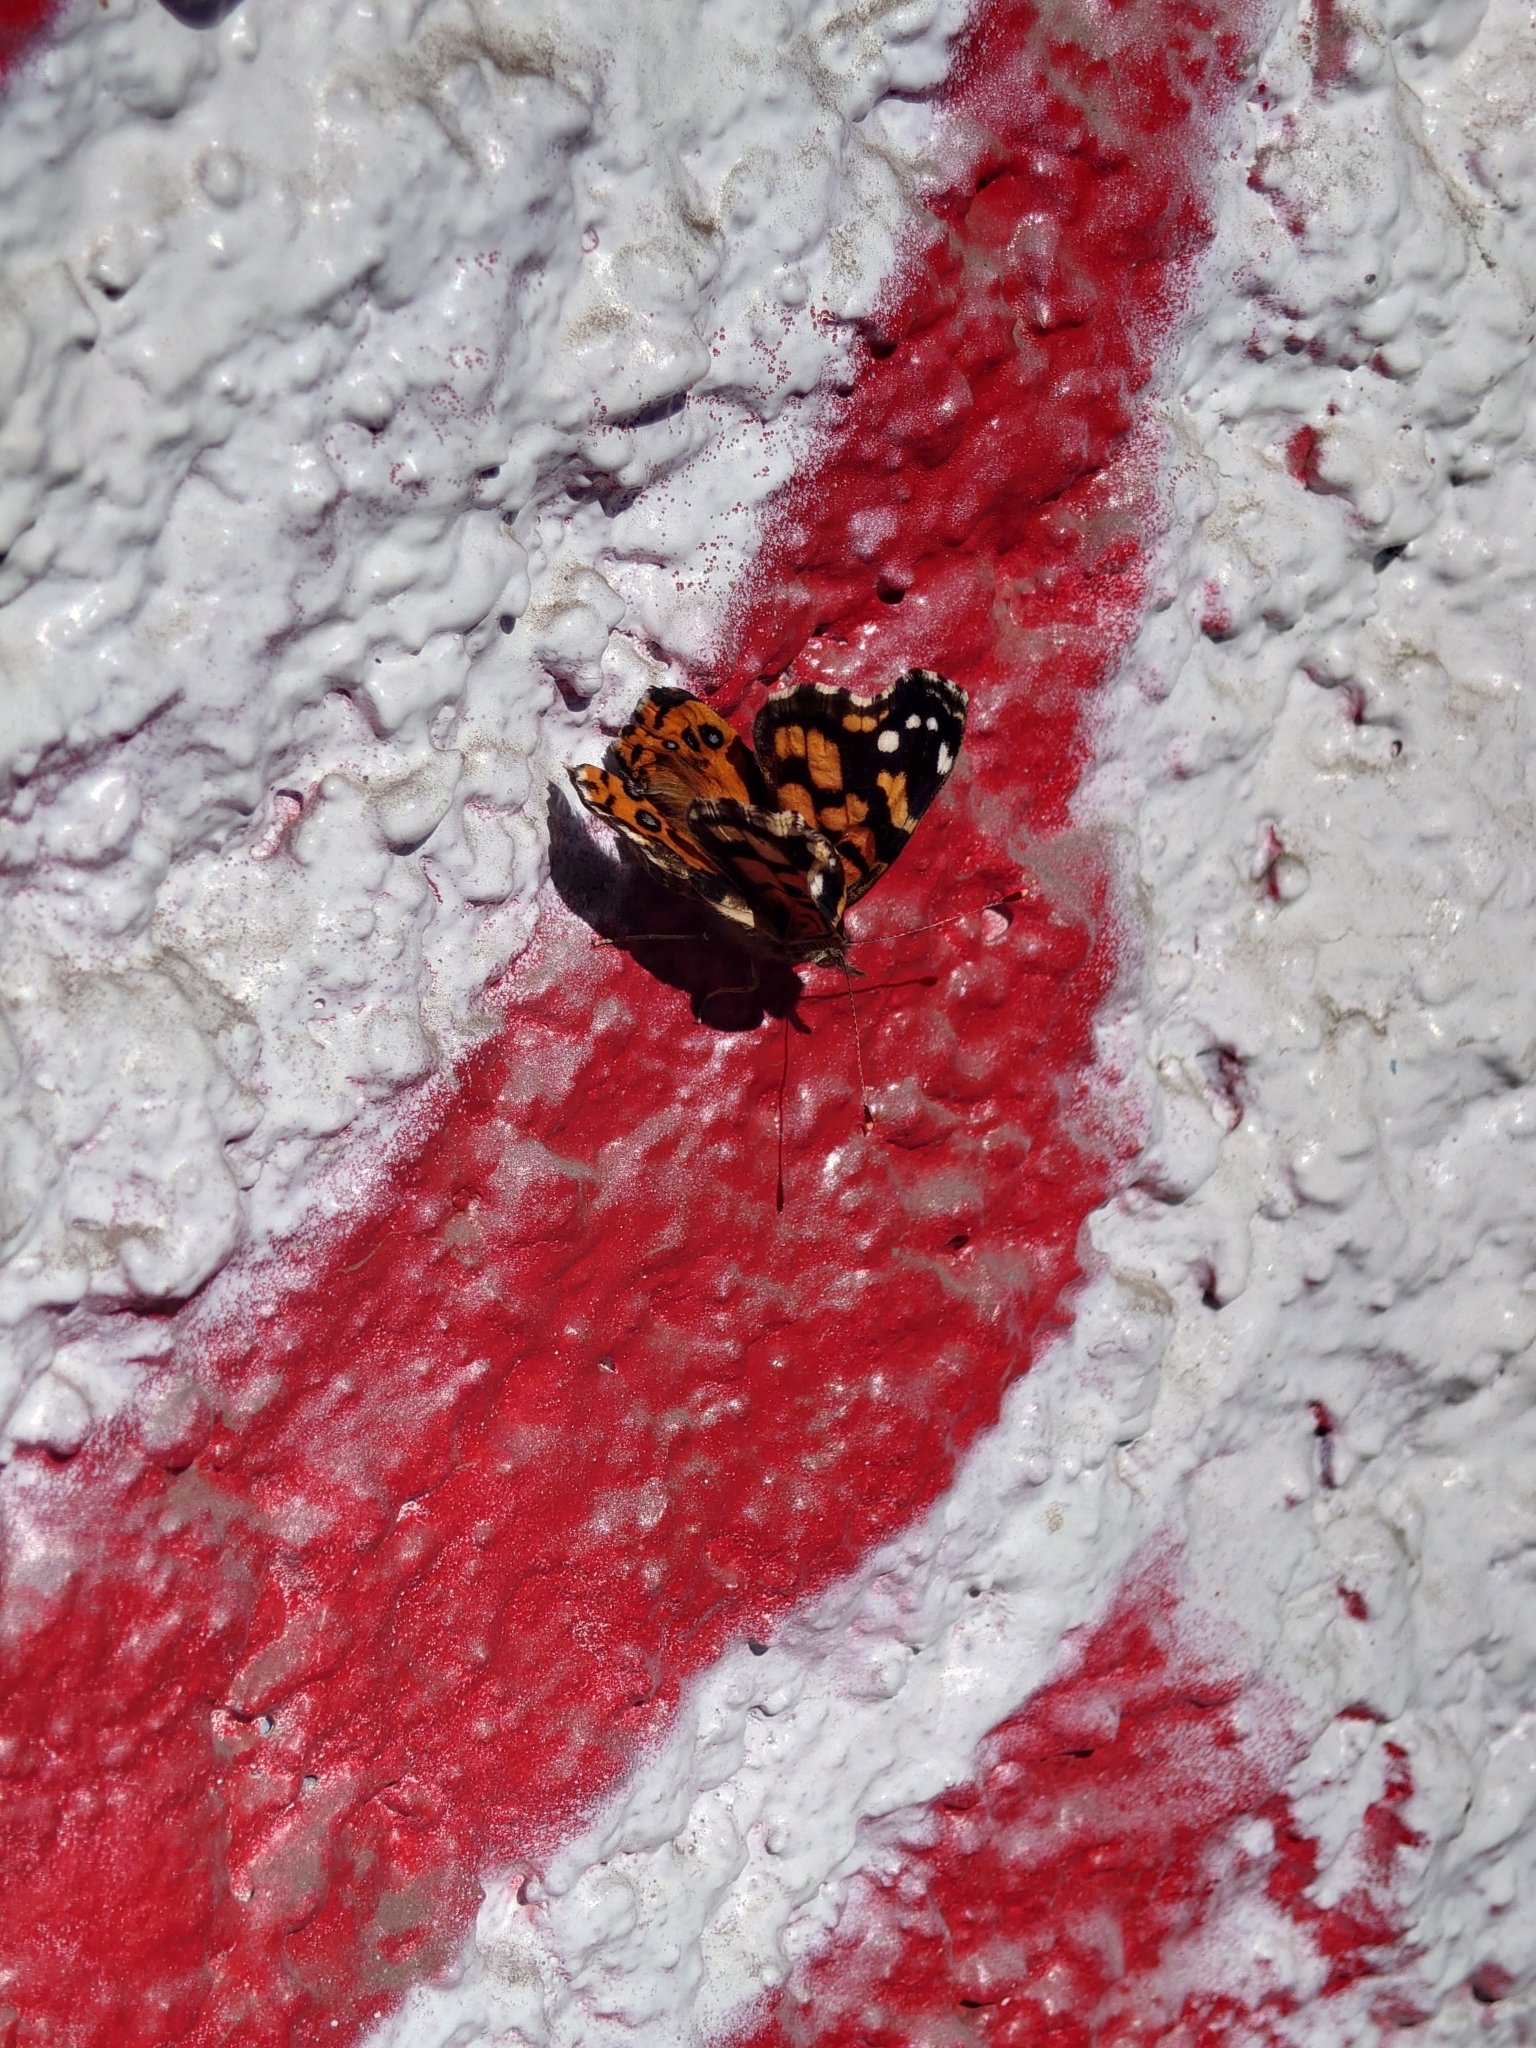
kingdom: Animalia
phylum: Arthropoda
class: Insecta
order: Lepidoptera
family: Nymphalidae
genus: Vanessa
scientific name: Vanessa carye
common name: Subtropical lady
